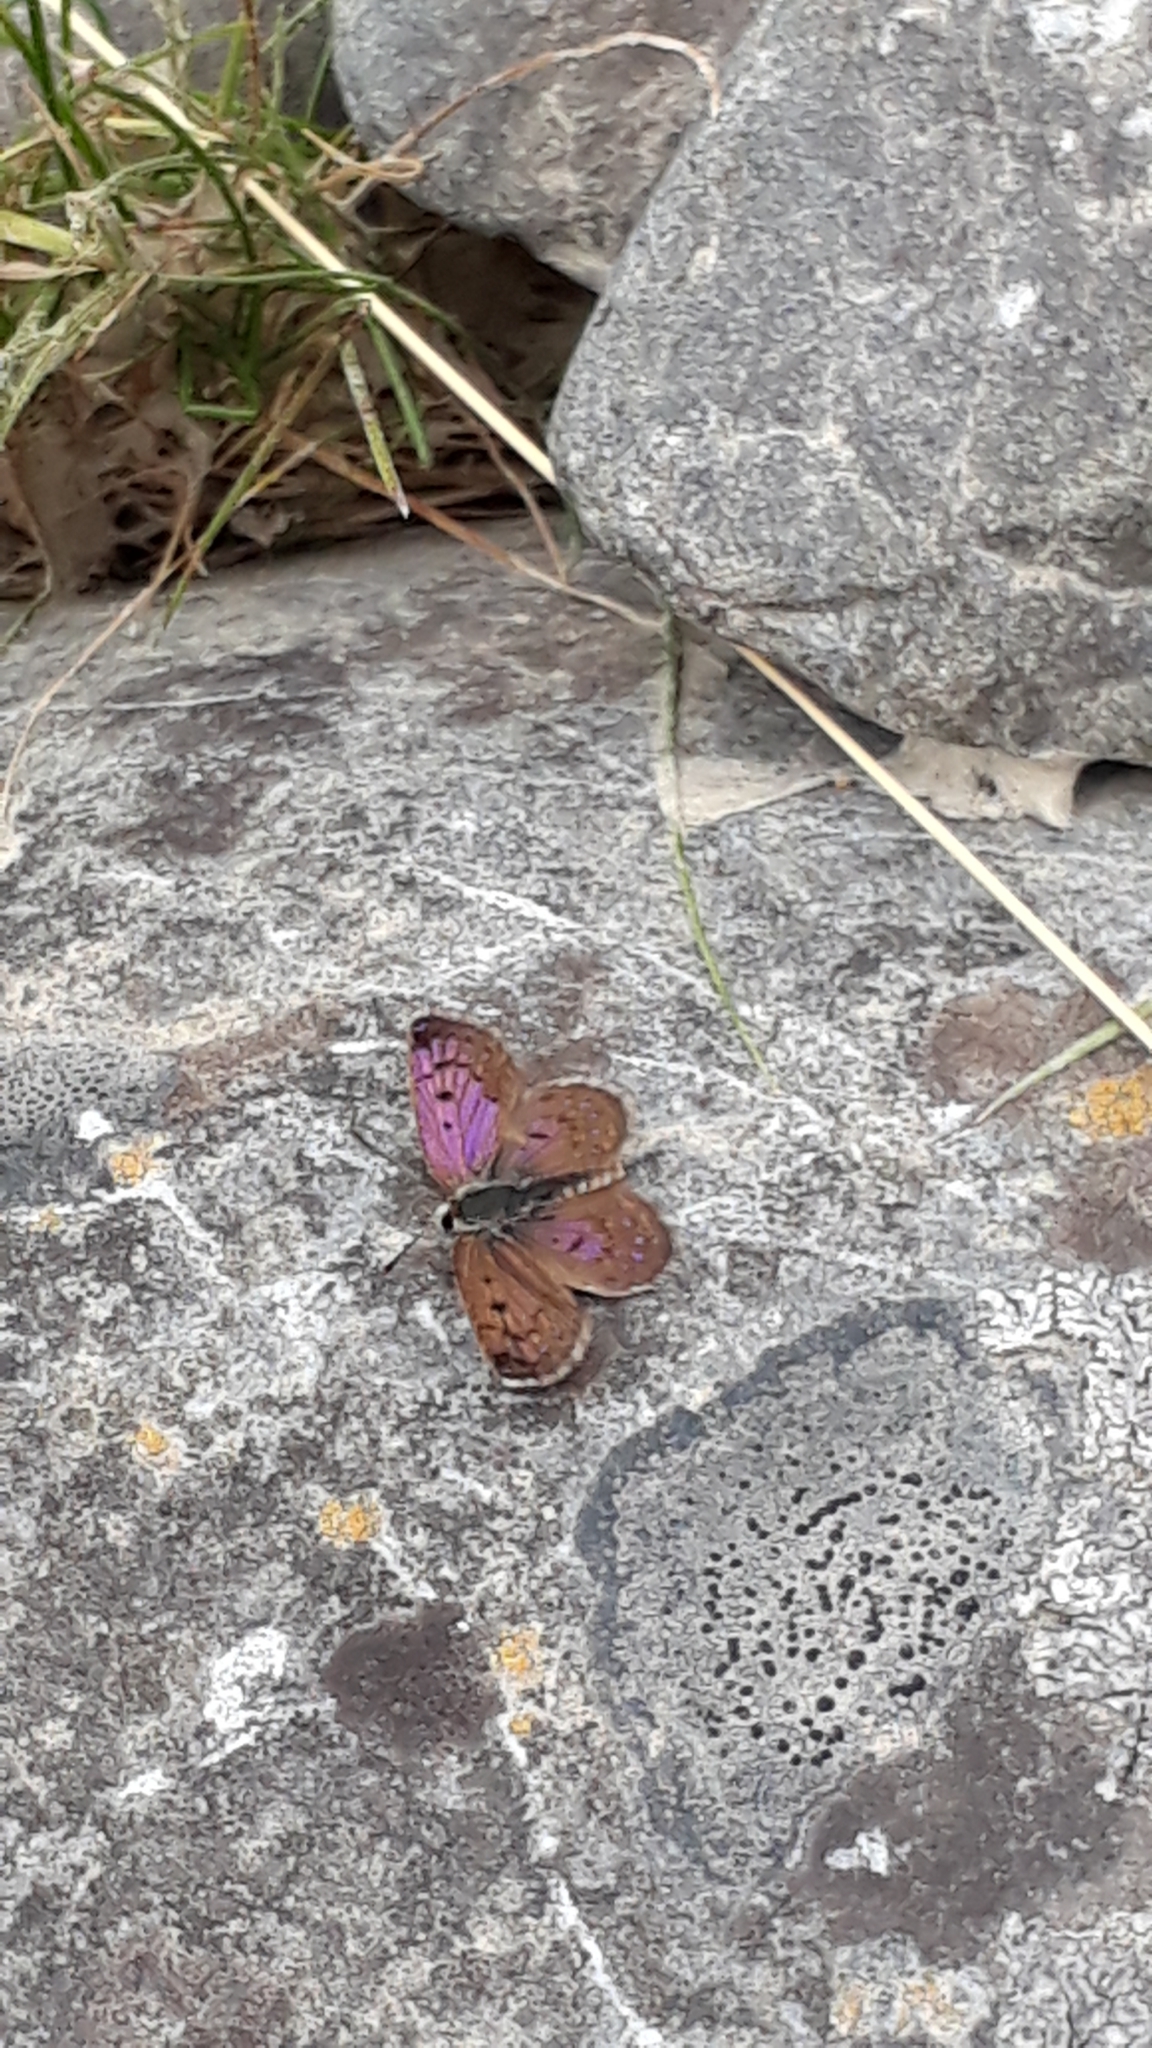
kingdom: Animalia
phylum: Arthropoda
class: Insecta
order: Lepidoptera
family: Lycaenidae
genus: Lycaena
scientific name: Lycaena boldenarum
